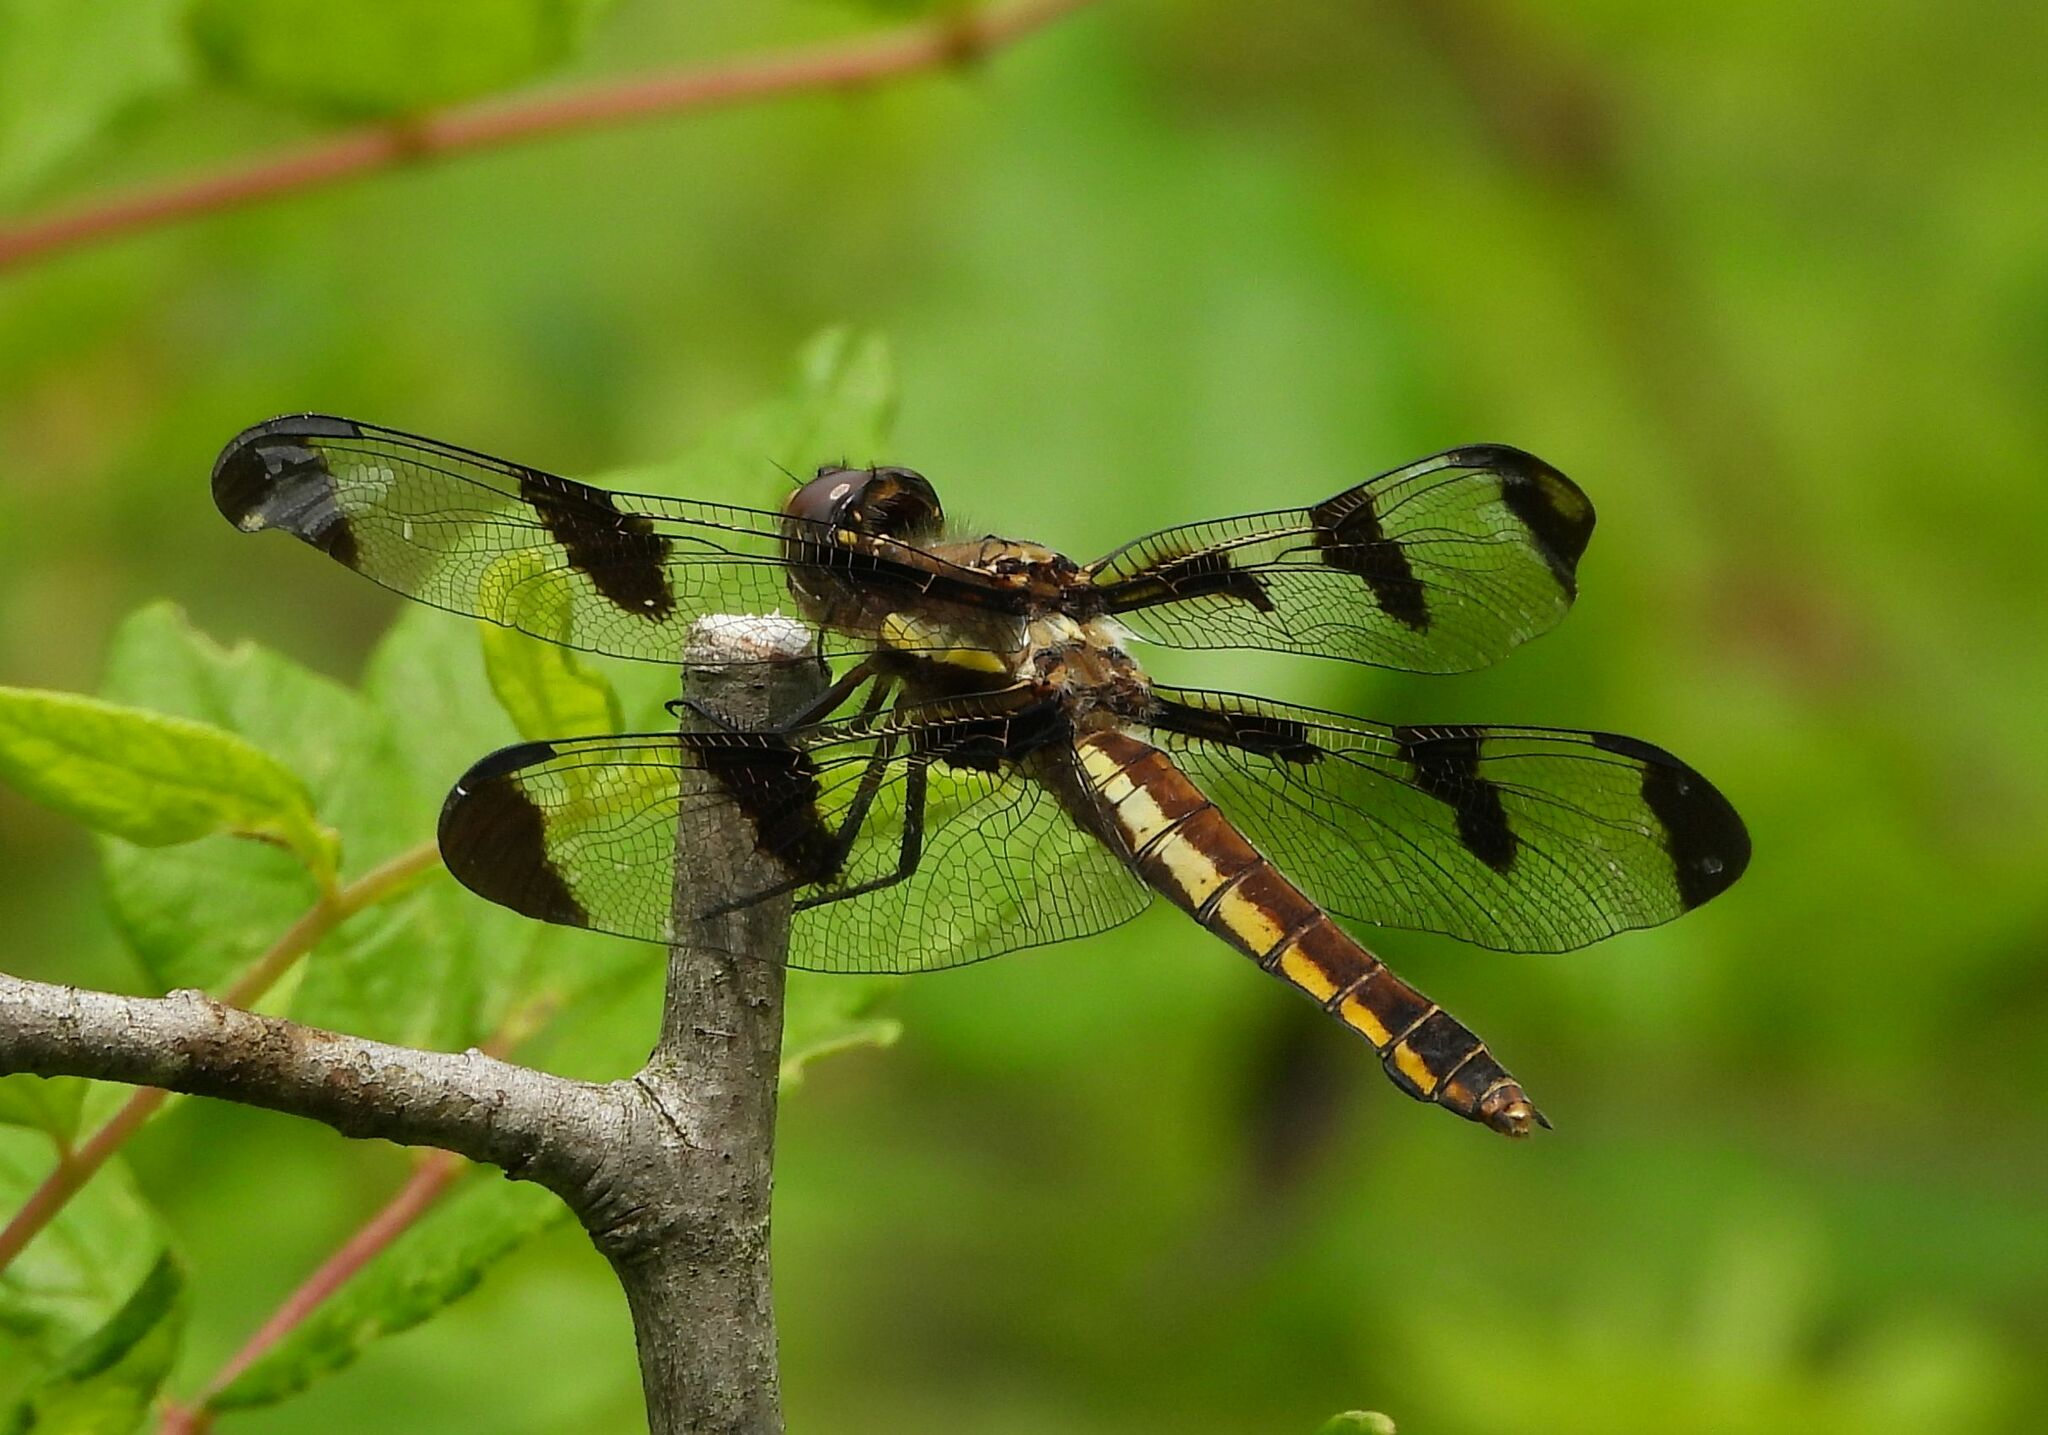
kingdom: Animalia
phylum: Arthropoda
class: Insecta
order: Odonata
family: Libellulidae
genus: Libellula
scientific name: Libellula pulchella
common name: Twelve-spotted skimmer
